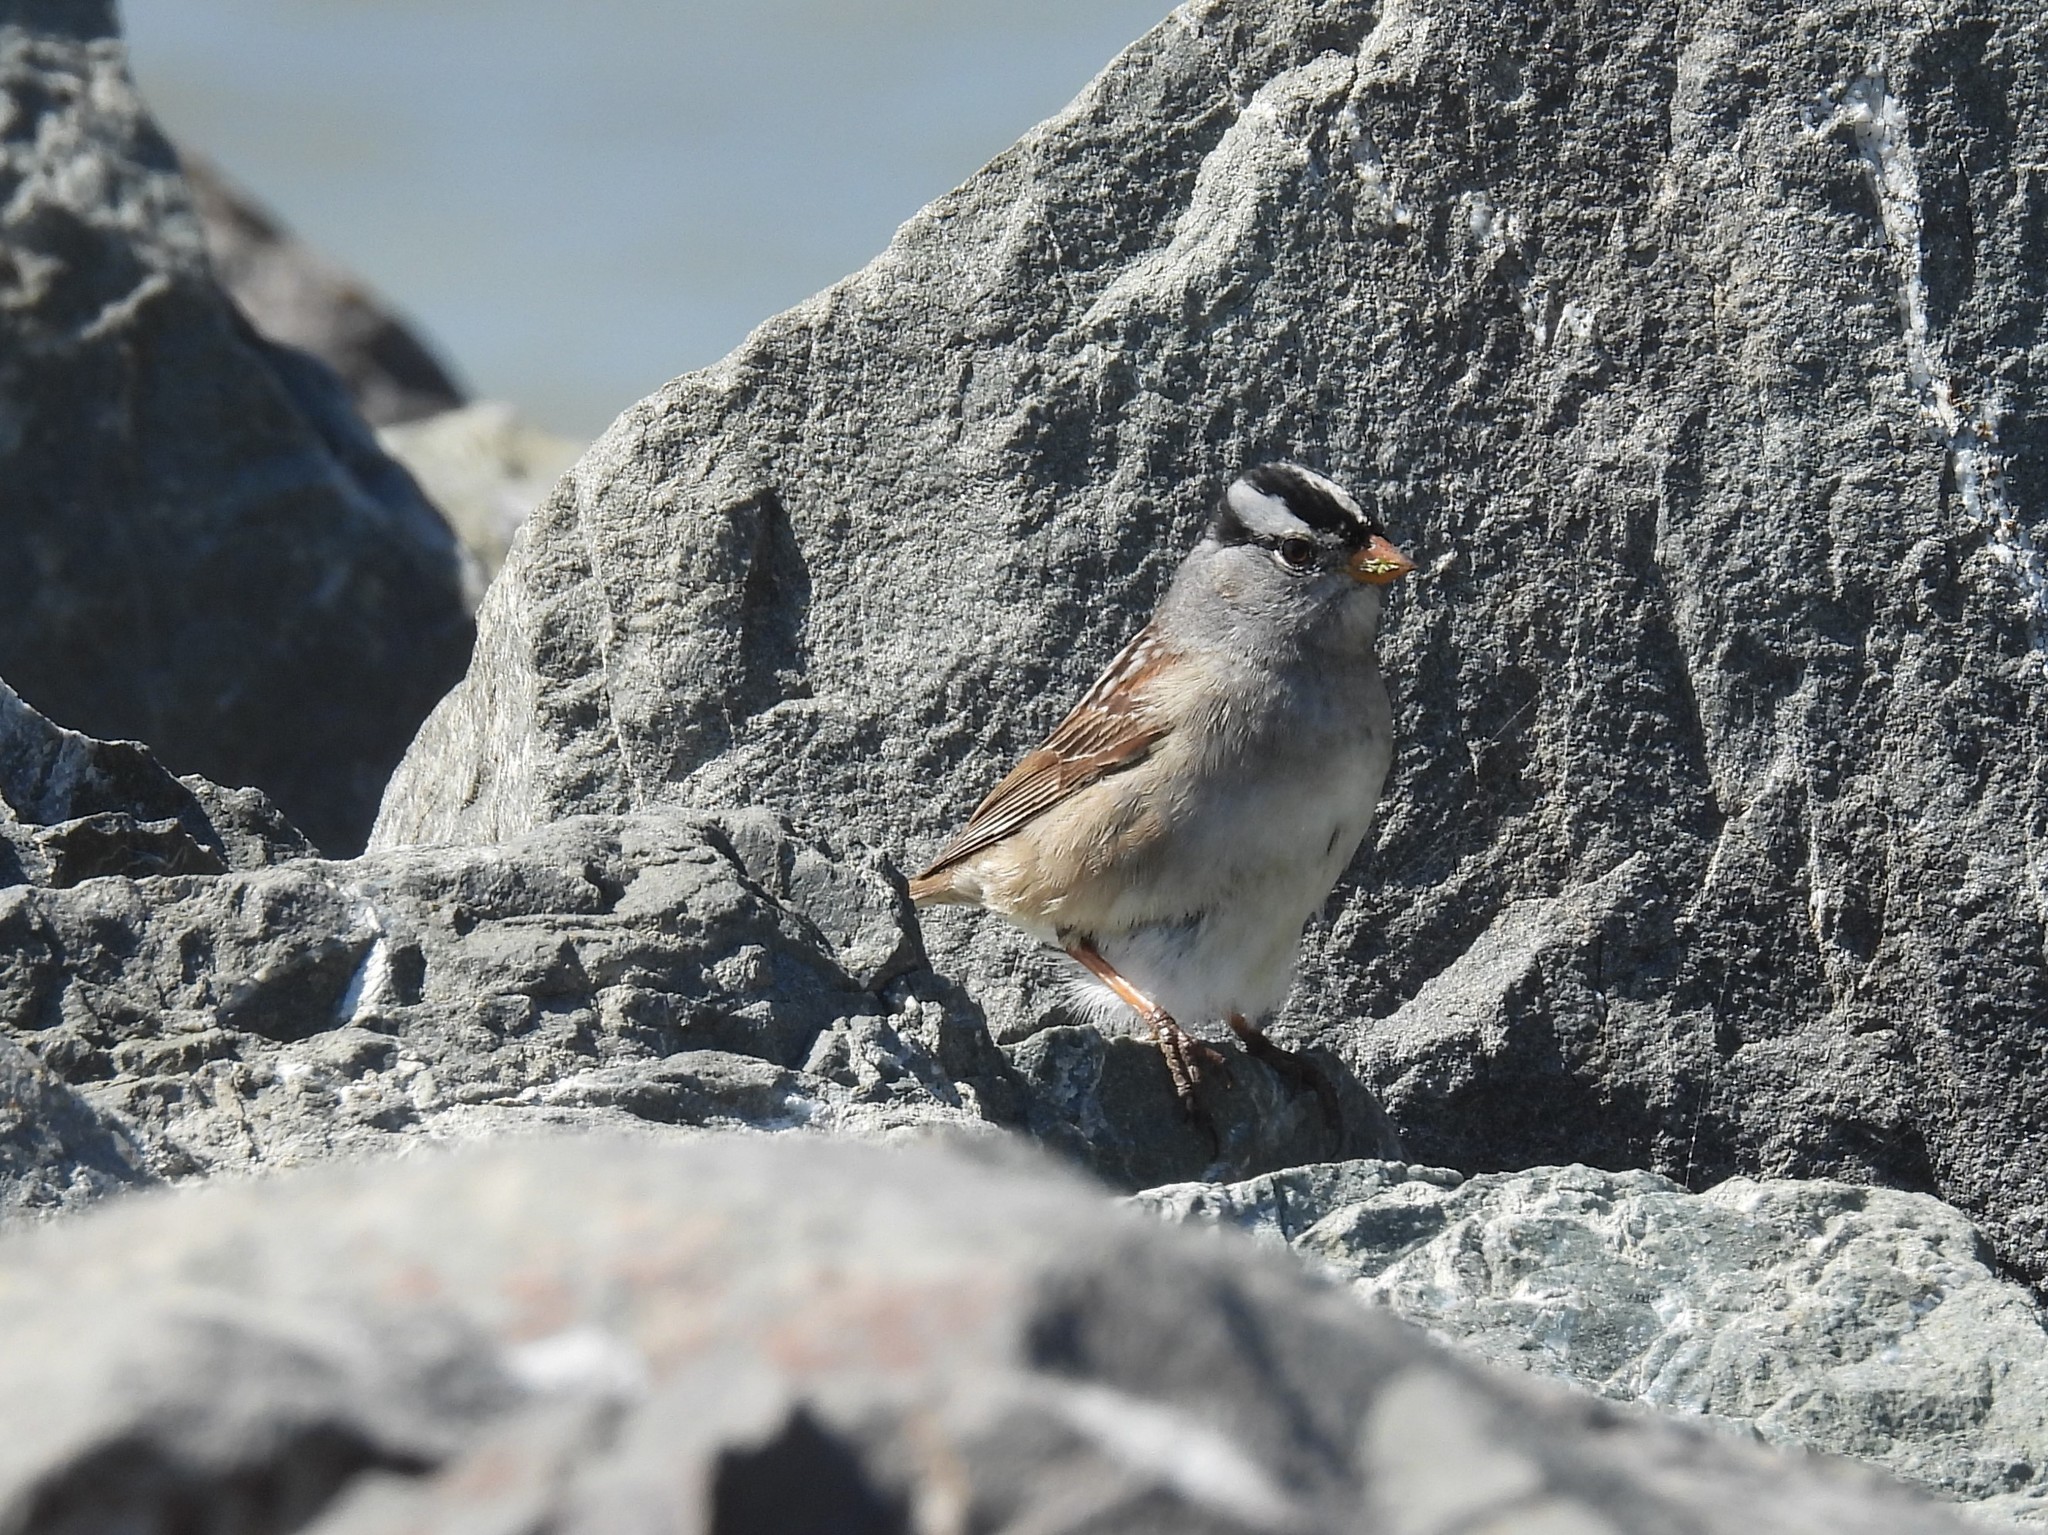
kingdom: Animalia
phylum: Chordata
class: Aves
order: Passeriformes
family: Passerellidae
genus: Zonotrichia
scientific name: Zonotrichia leucophrys
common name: White-crowned sparrow
